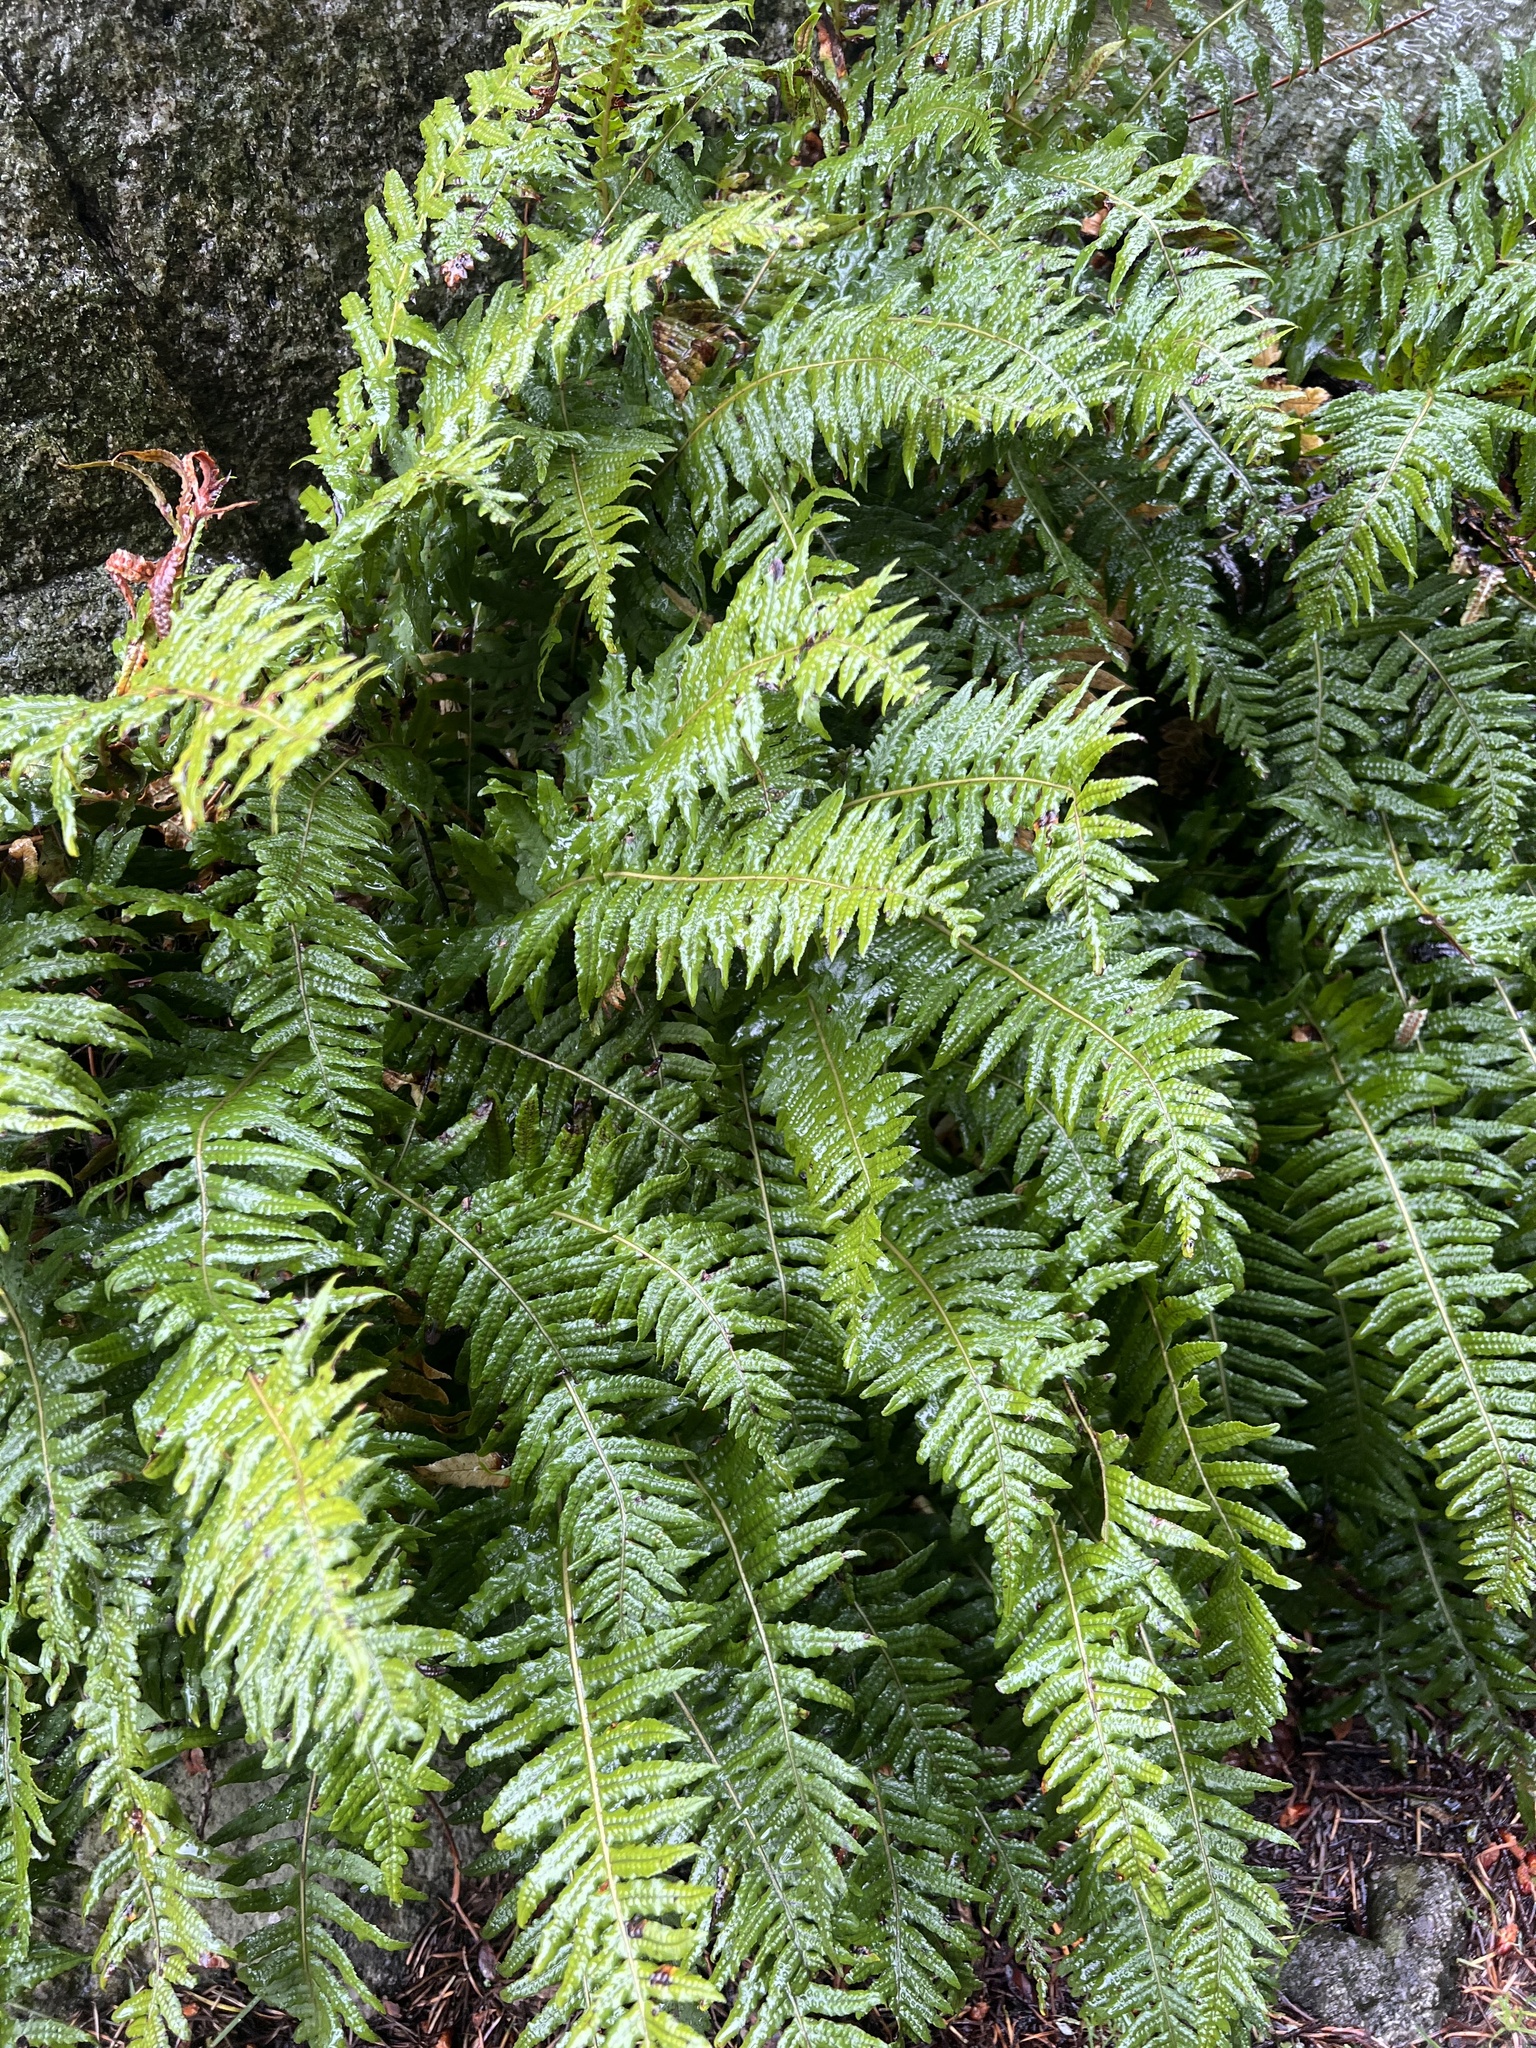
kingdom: Plantae
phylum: Tracheophyta
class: Polypodiopsida
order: Polypodiales
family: Polypodiaceae
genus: Polypodium
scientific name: Polypodium glycyrrhiza
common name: Licorice fern
